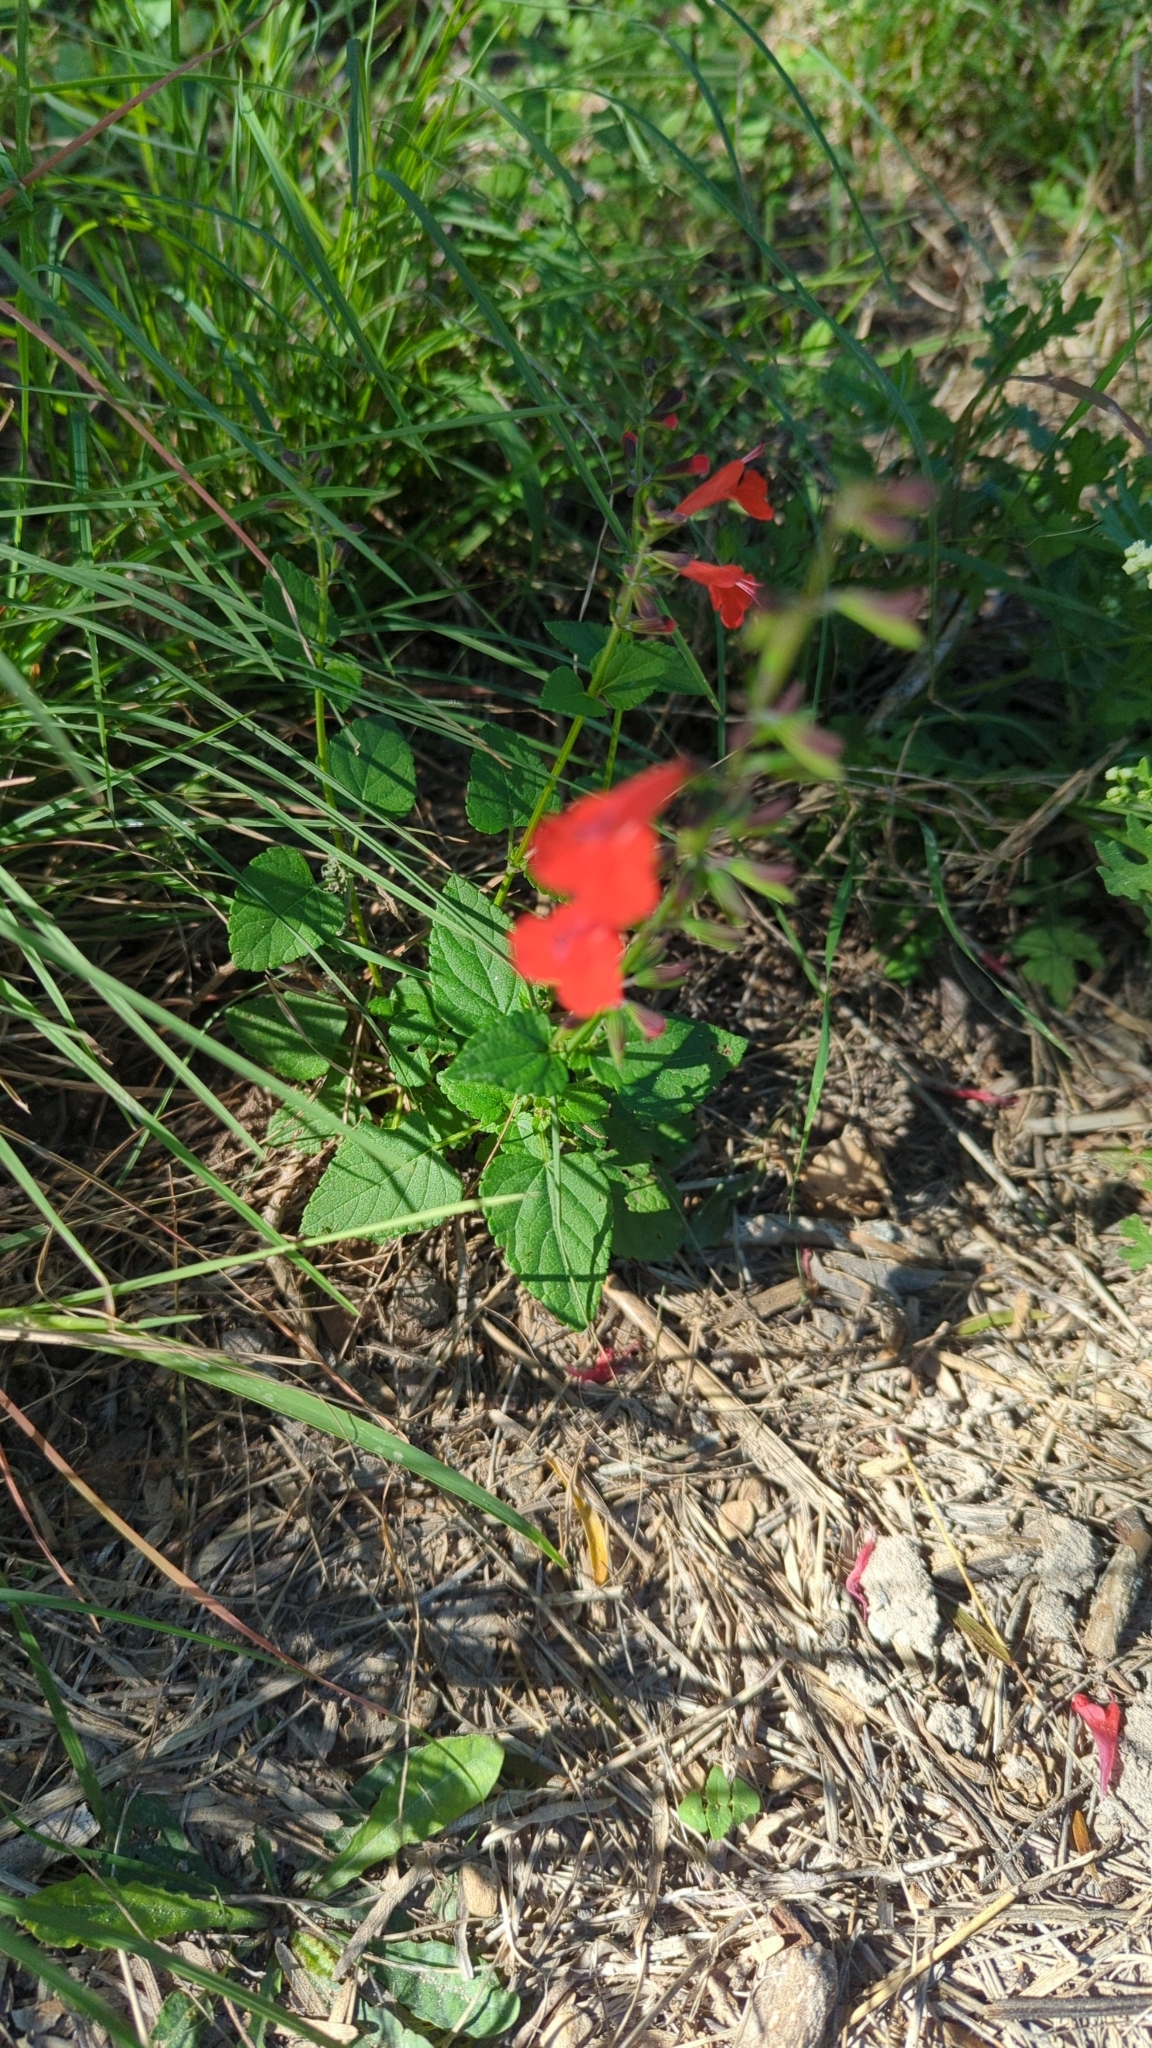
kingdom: Plantae
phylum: Tracheophyta
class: Magnoliopsida
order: Lamiales
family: Lamiaceae
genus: Salvia
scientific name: Salvia coccinea
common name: Blood sage
